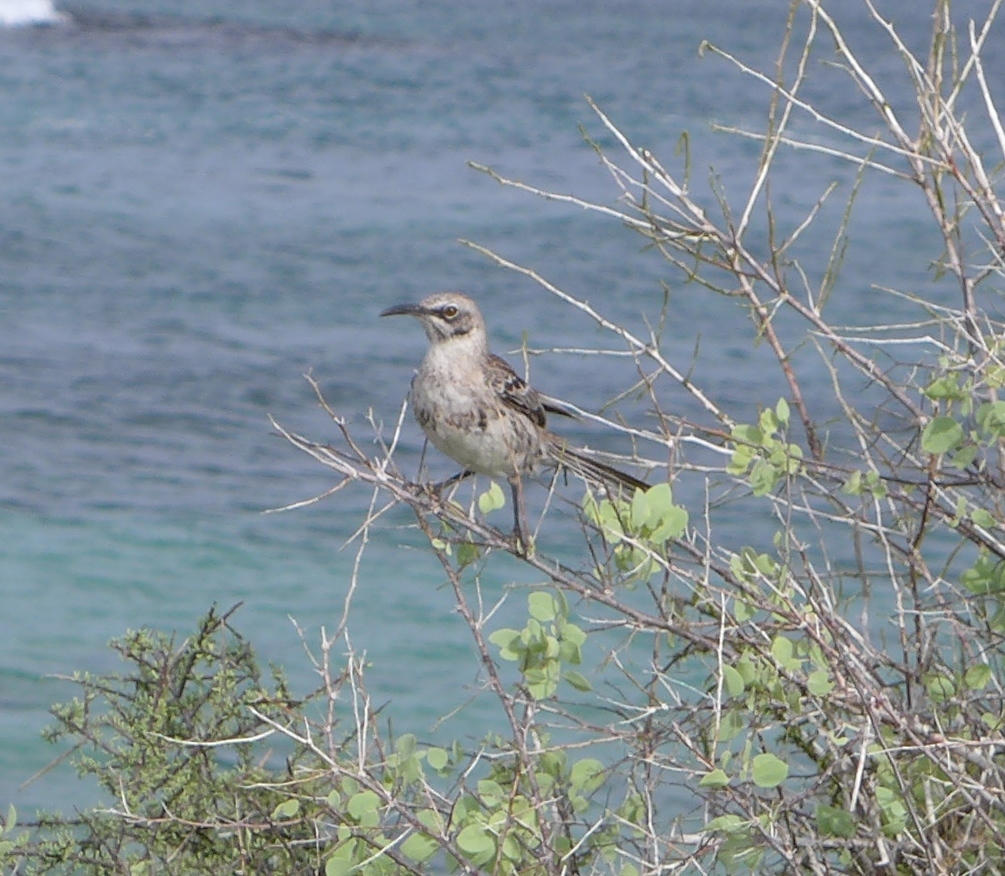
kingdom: Animalia
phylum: Chordata
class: Aves
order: Passeriformes
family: Mimidae
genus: Mimus
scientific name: Mimus macdonaldi
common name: Espanola mockingbird
